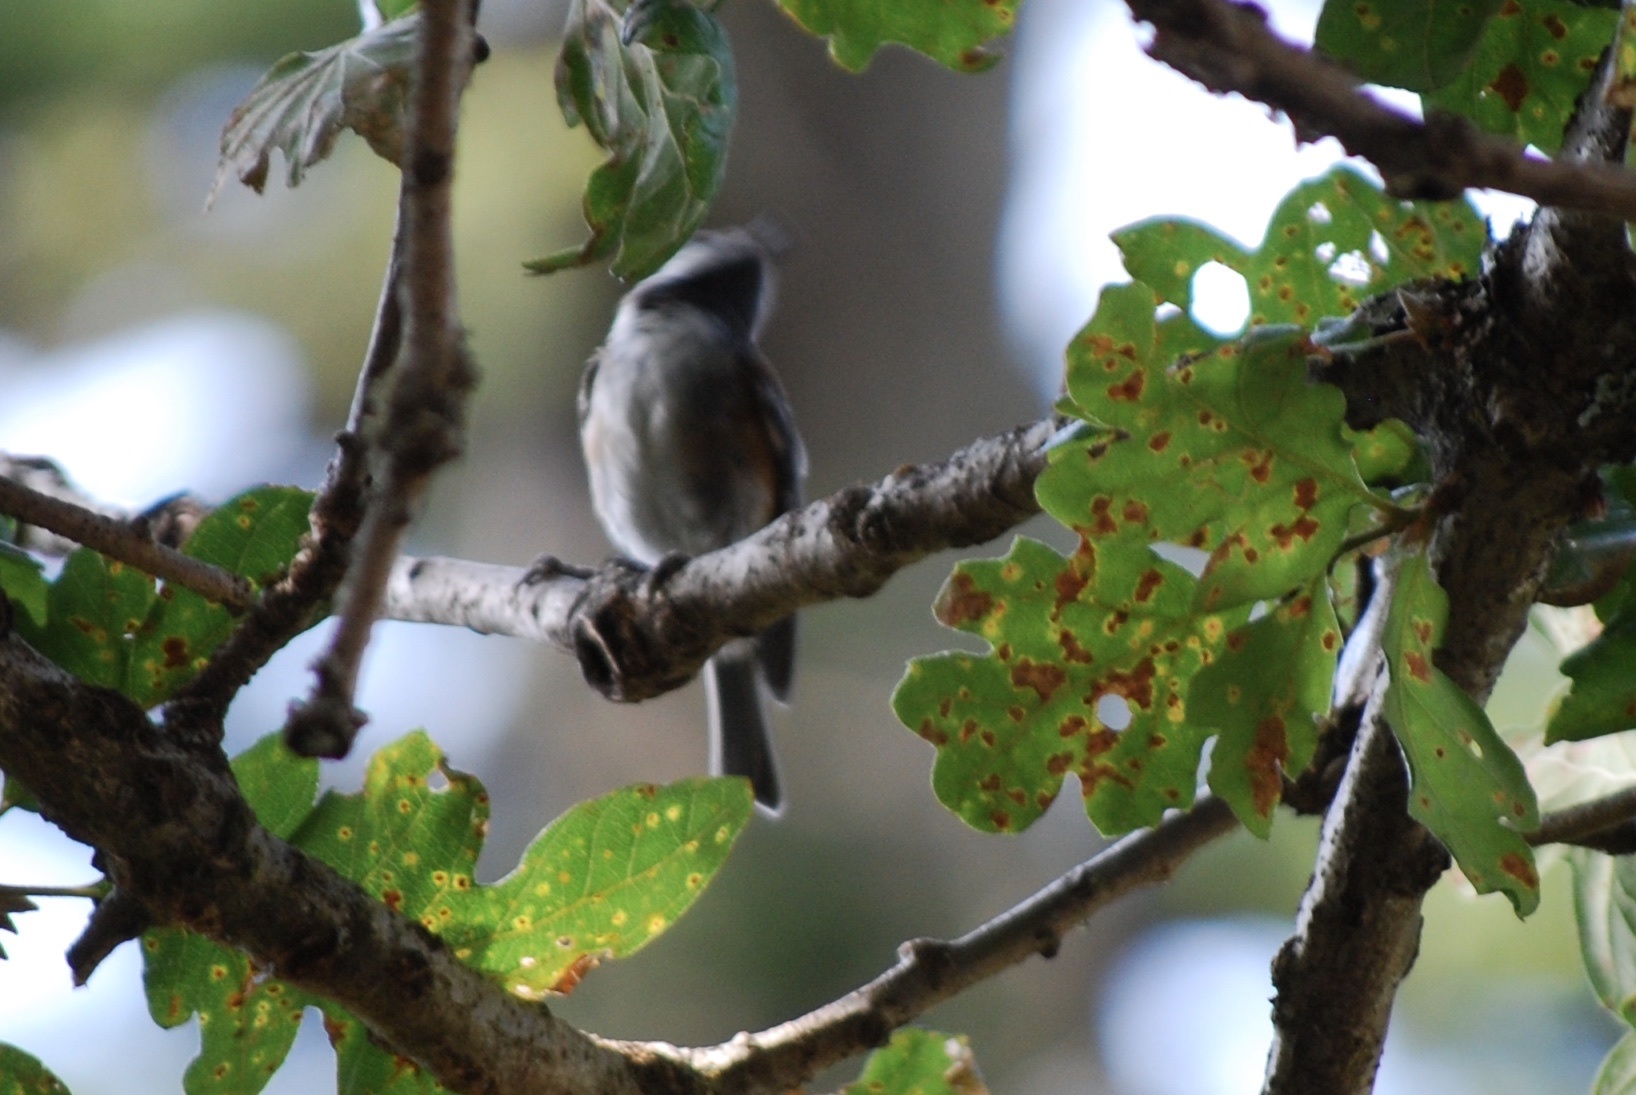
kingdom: Animalia
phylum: Chordata
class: Aves
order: Passeriformes
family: Paridae
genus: Poecile
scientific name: Poecile rufescens
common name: Chestnut-backed chickadee
